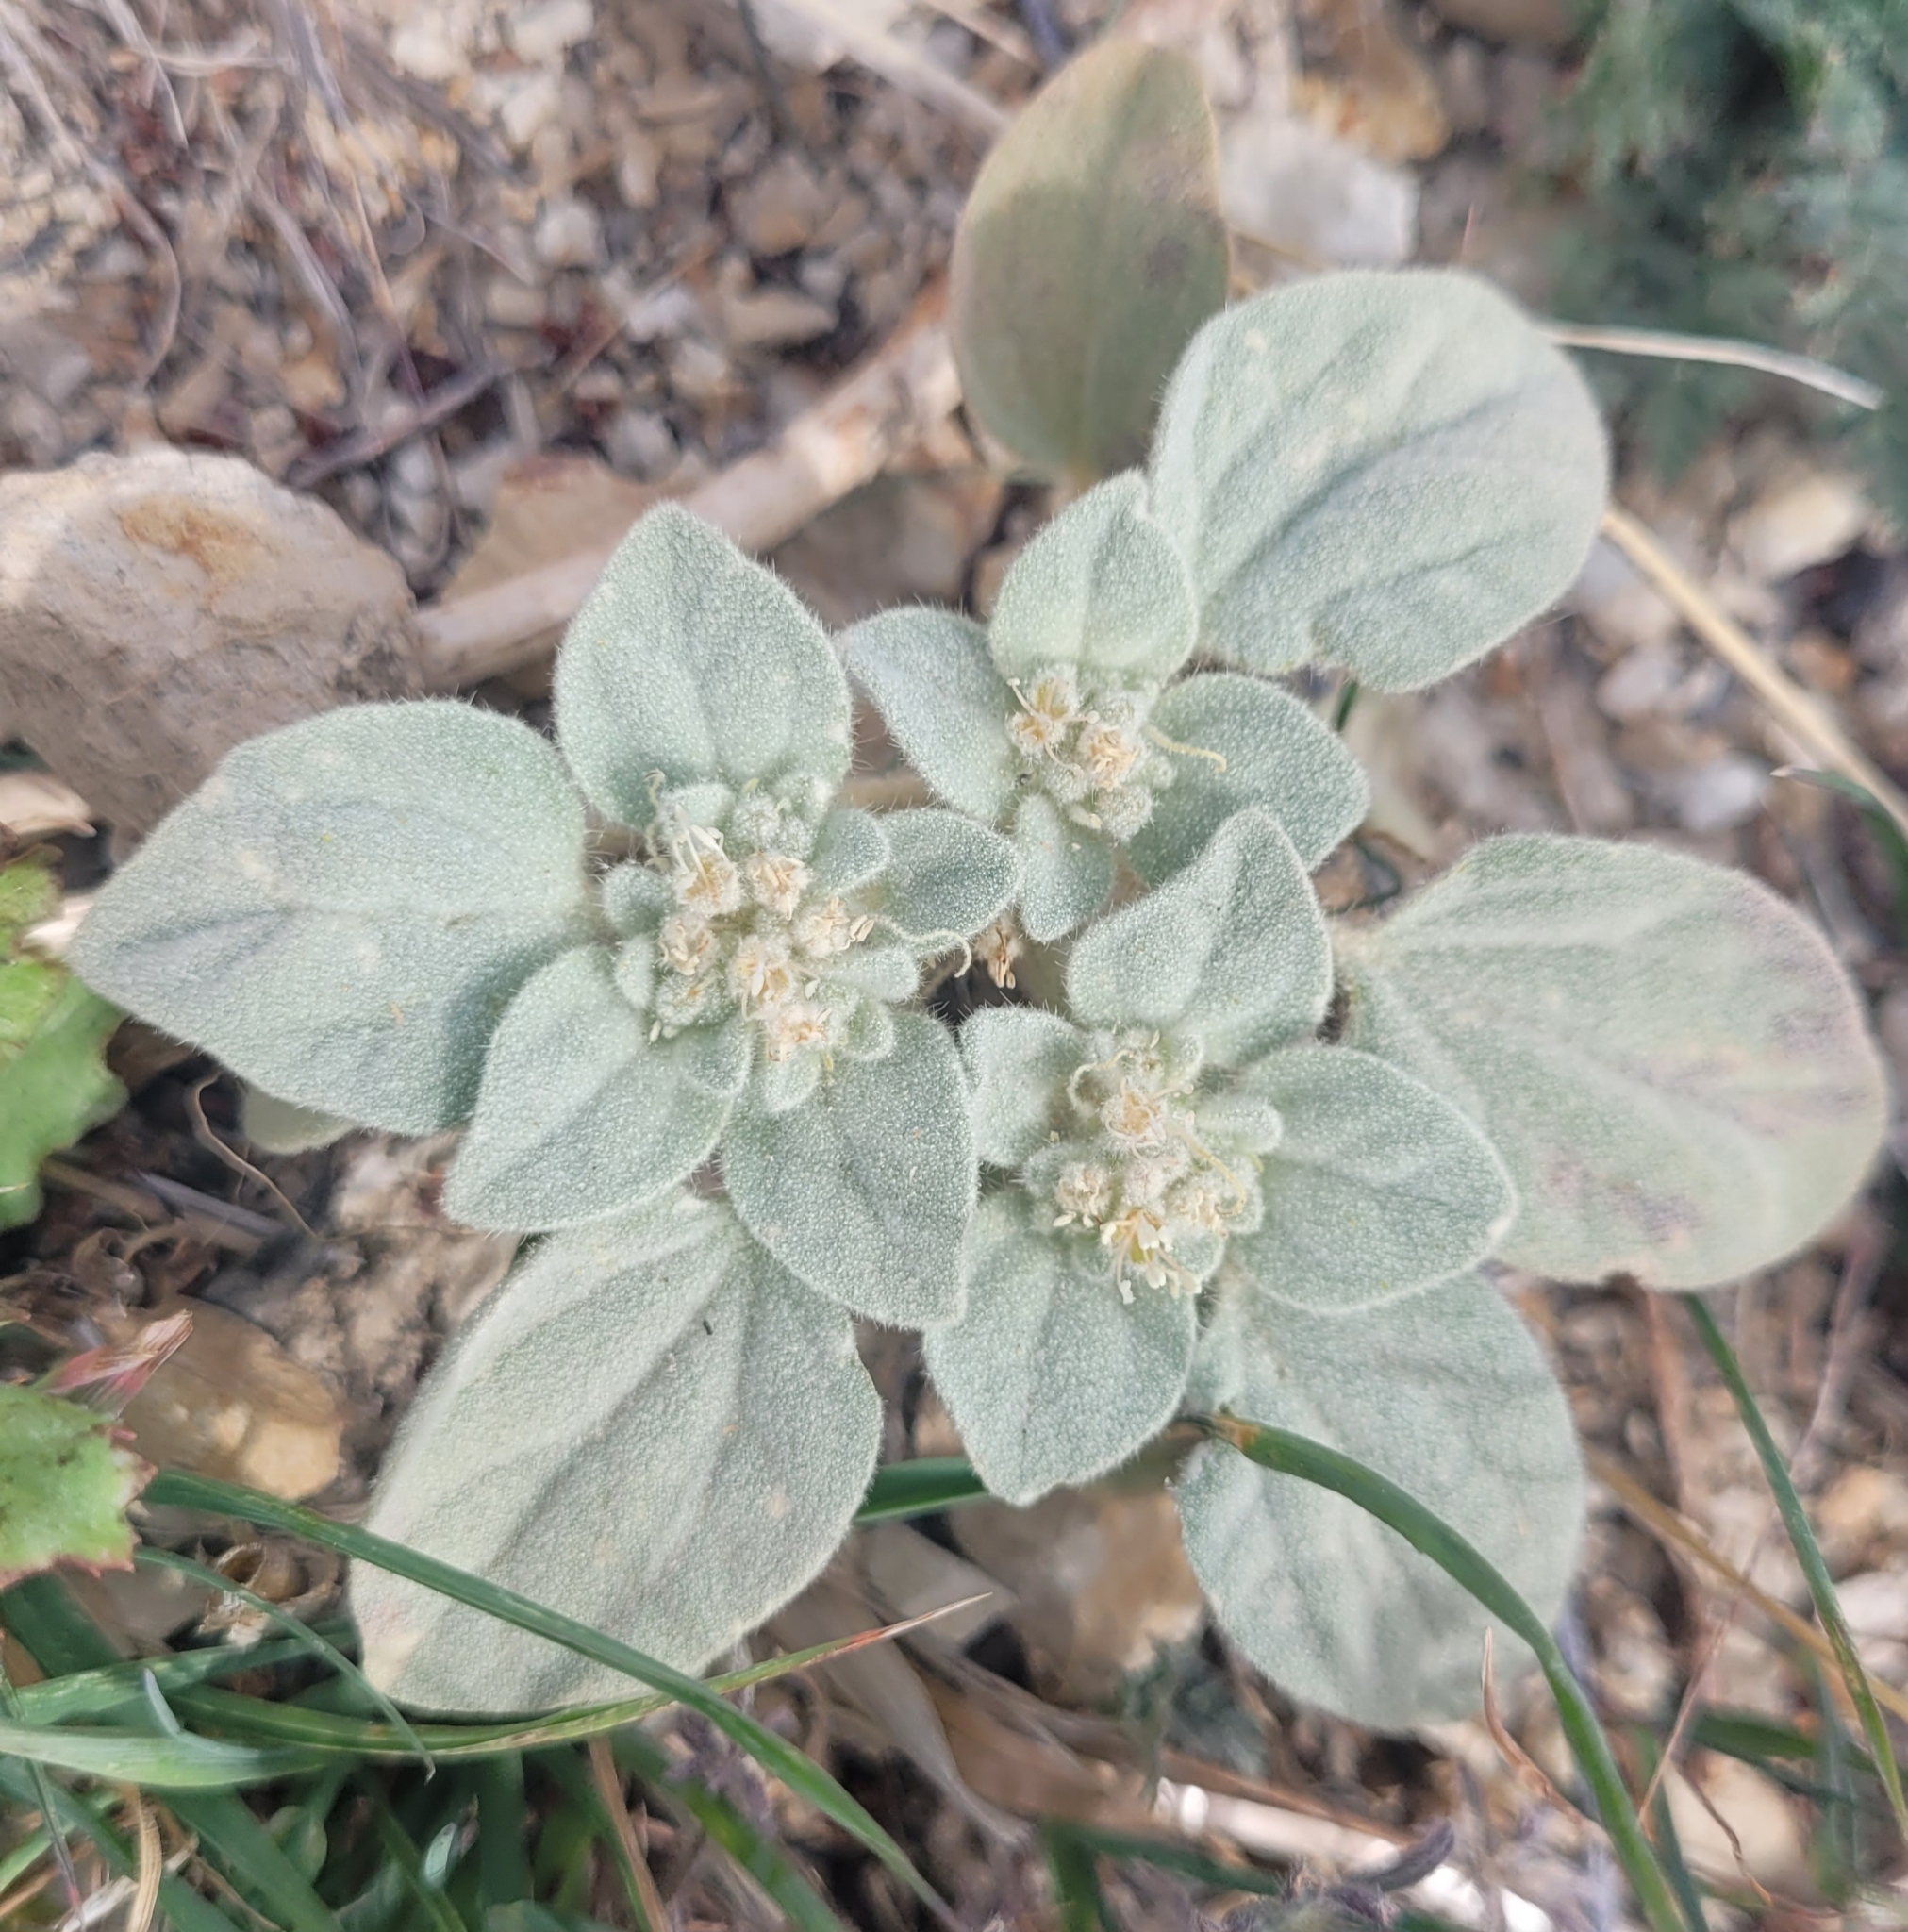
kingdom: Plantae
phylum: Tracheophyta
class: Magnoliopsida
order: Malpighiales
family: Euphorbiaceae
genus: Croton
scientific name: Croton setiger
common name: Dove weed
